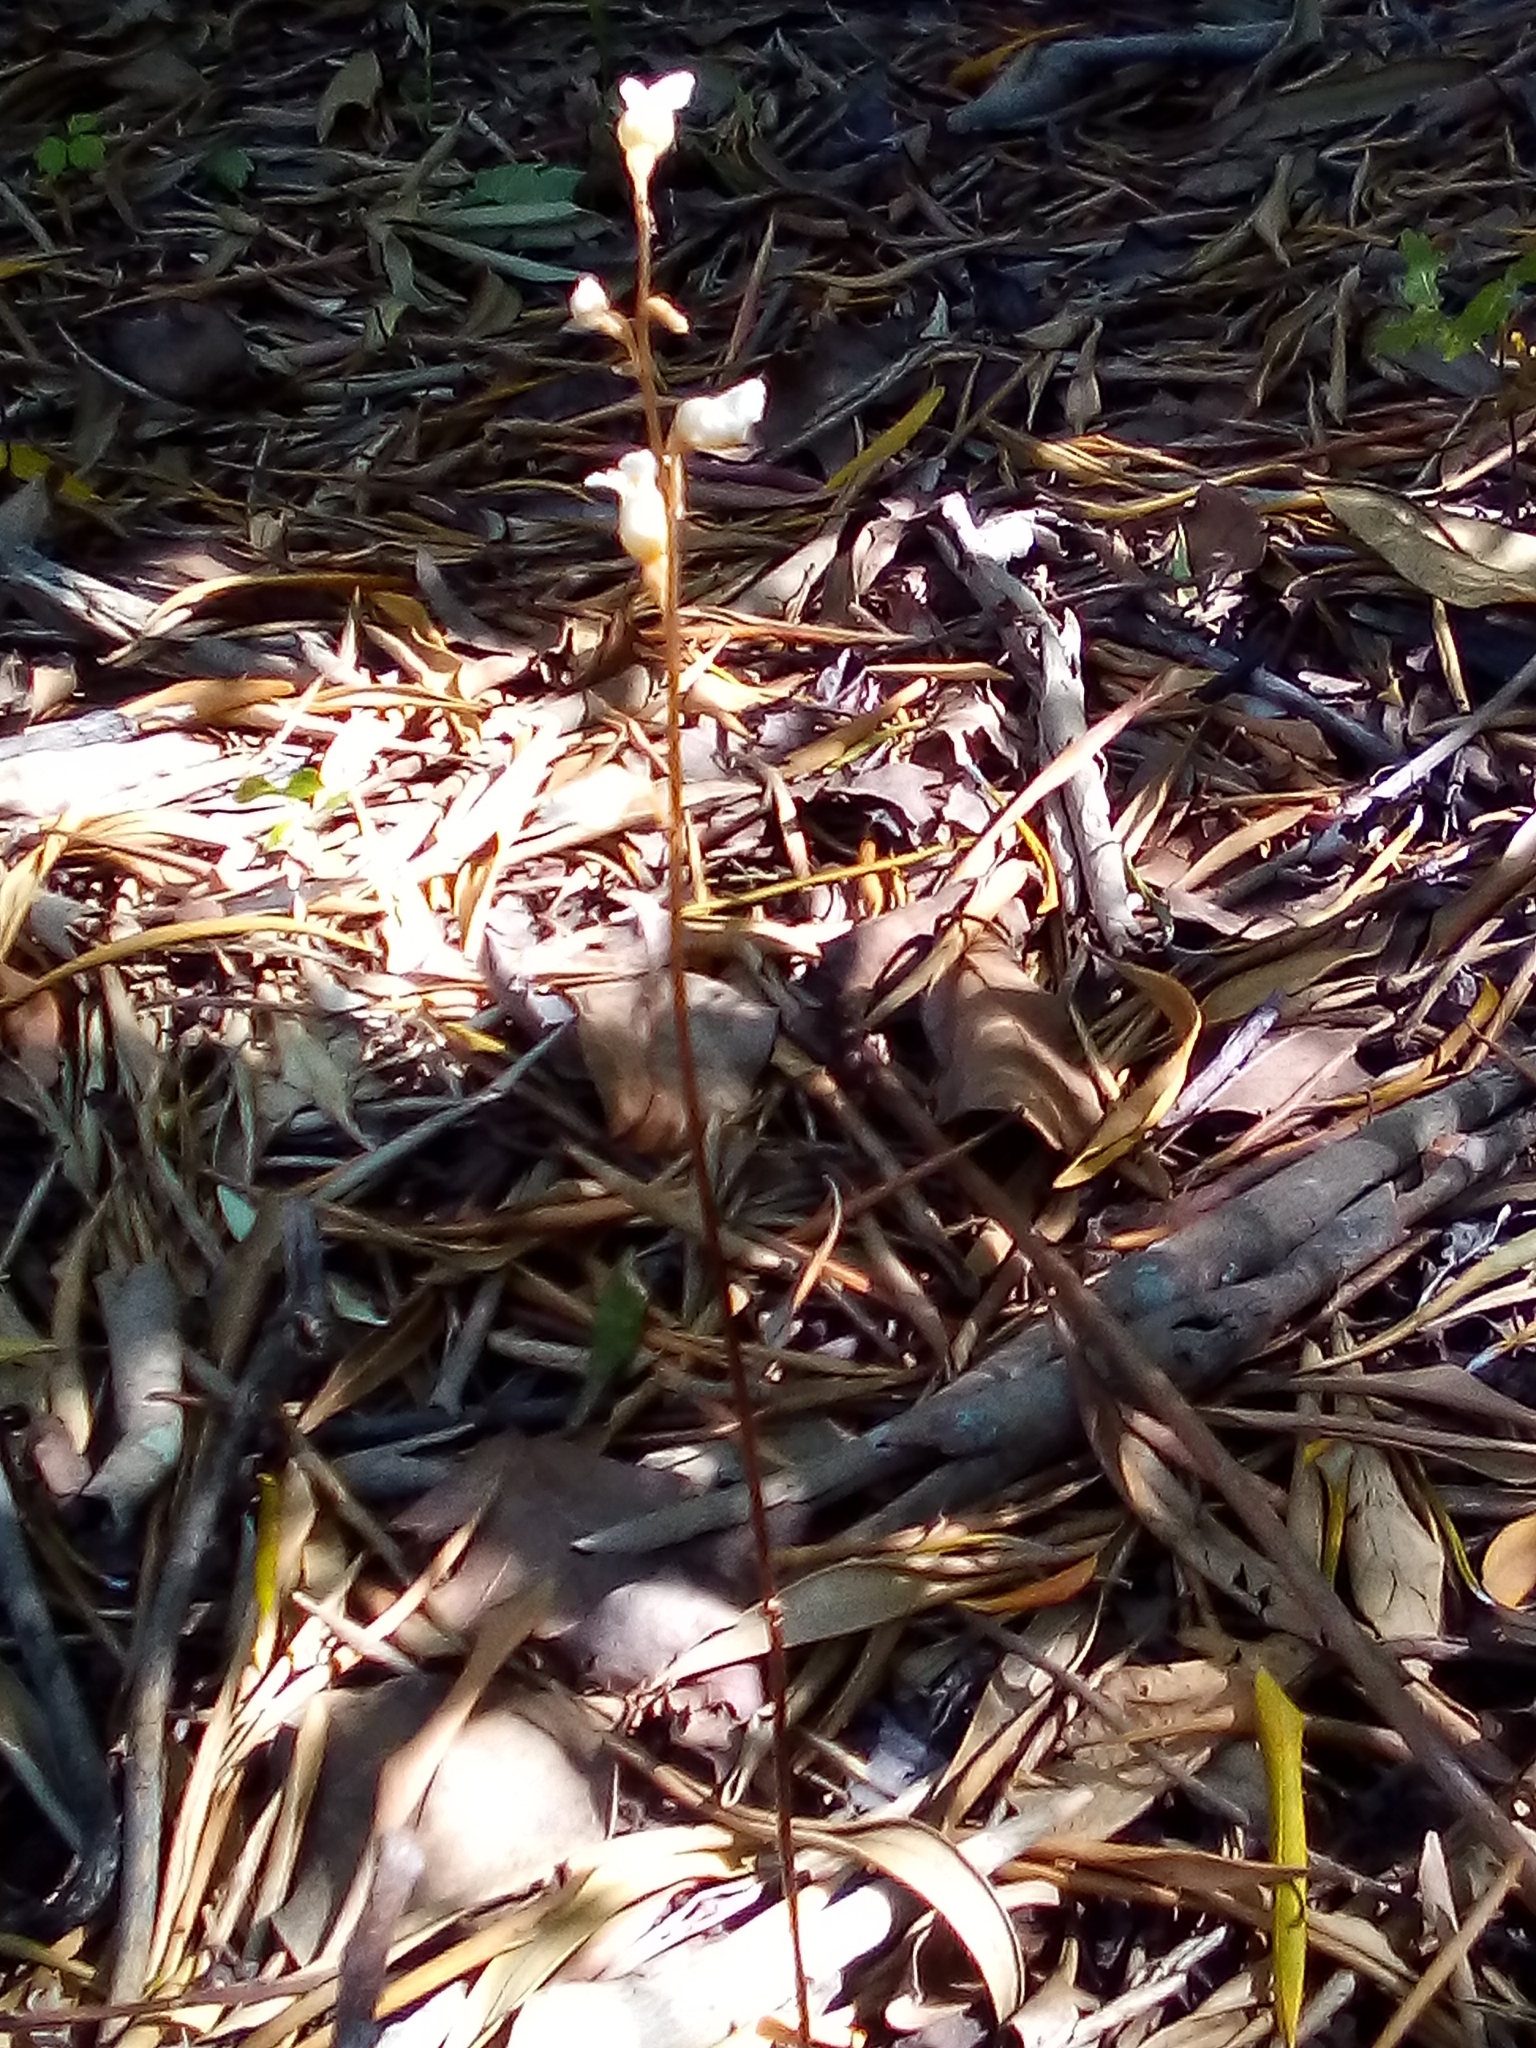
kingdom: Plantae
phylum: Tracheophyta
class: Liliopsida
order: Asparagales
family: Orchidaceae
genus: Gastrodia
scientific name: Gastrodia sesamoides
